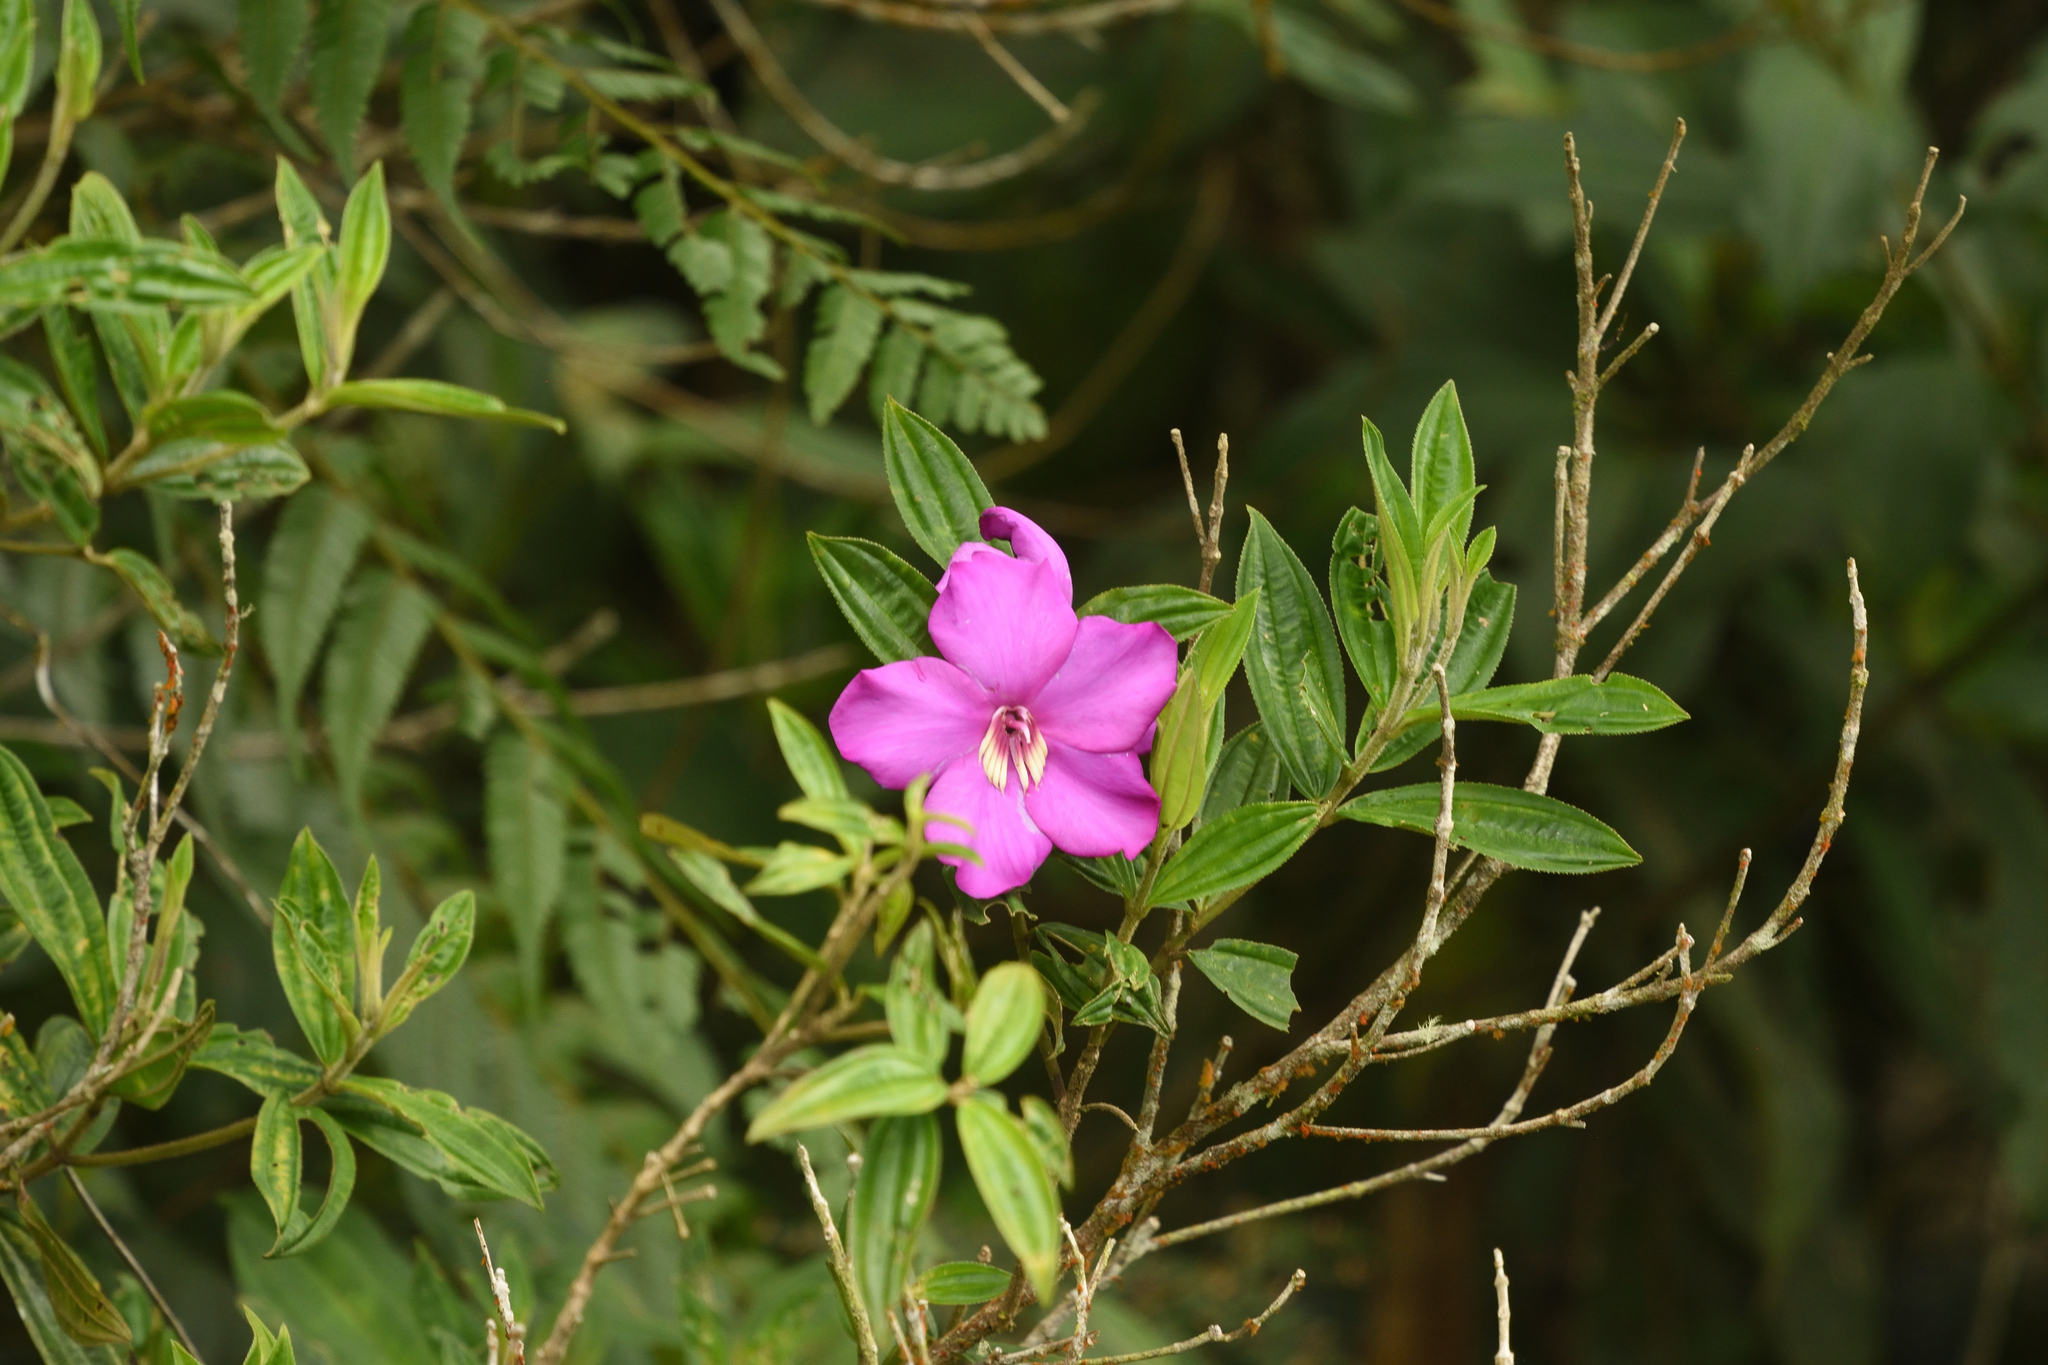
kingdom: Plantae
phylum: Tracheophyta
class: Magnoliopsida
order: Myrtales
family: Melastomataceae
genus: Meriania
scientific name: Meriania speciosa
